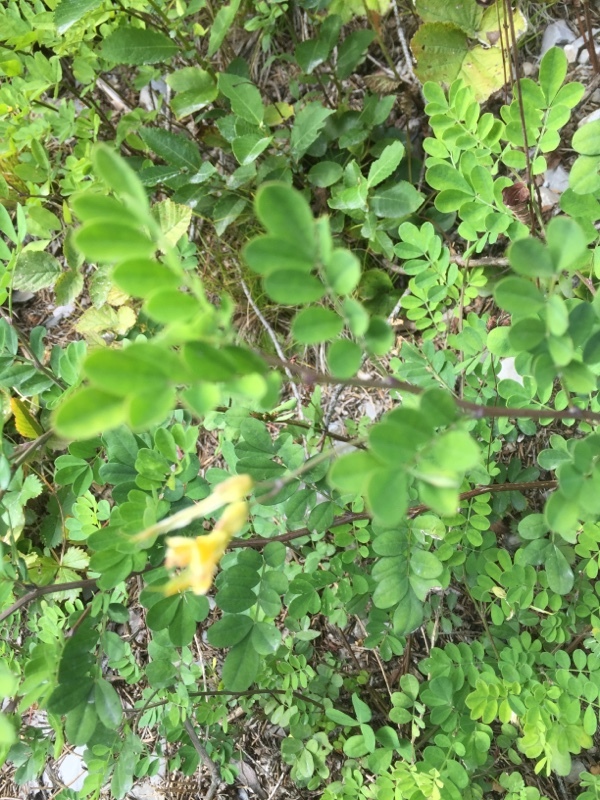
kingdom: Plantae
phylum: Tracheophyta
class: Magnoliopsida
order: Fabales
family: Fabaceae
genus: Hippocrepis
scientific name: Hippocrepis emerus
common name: Scorpion senna
